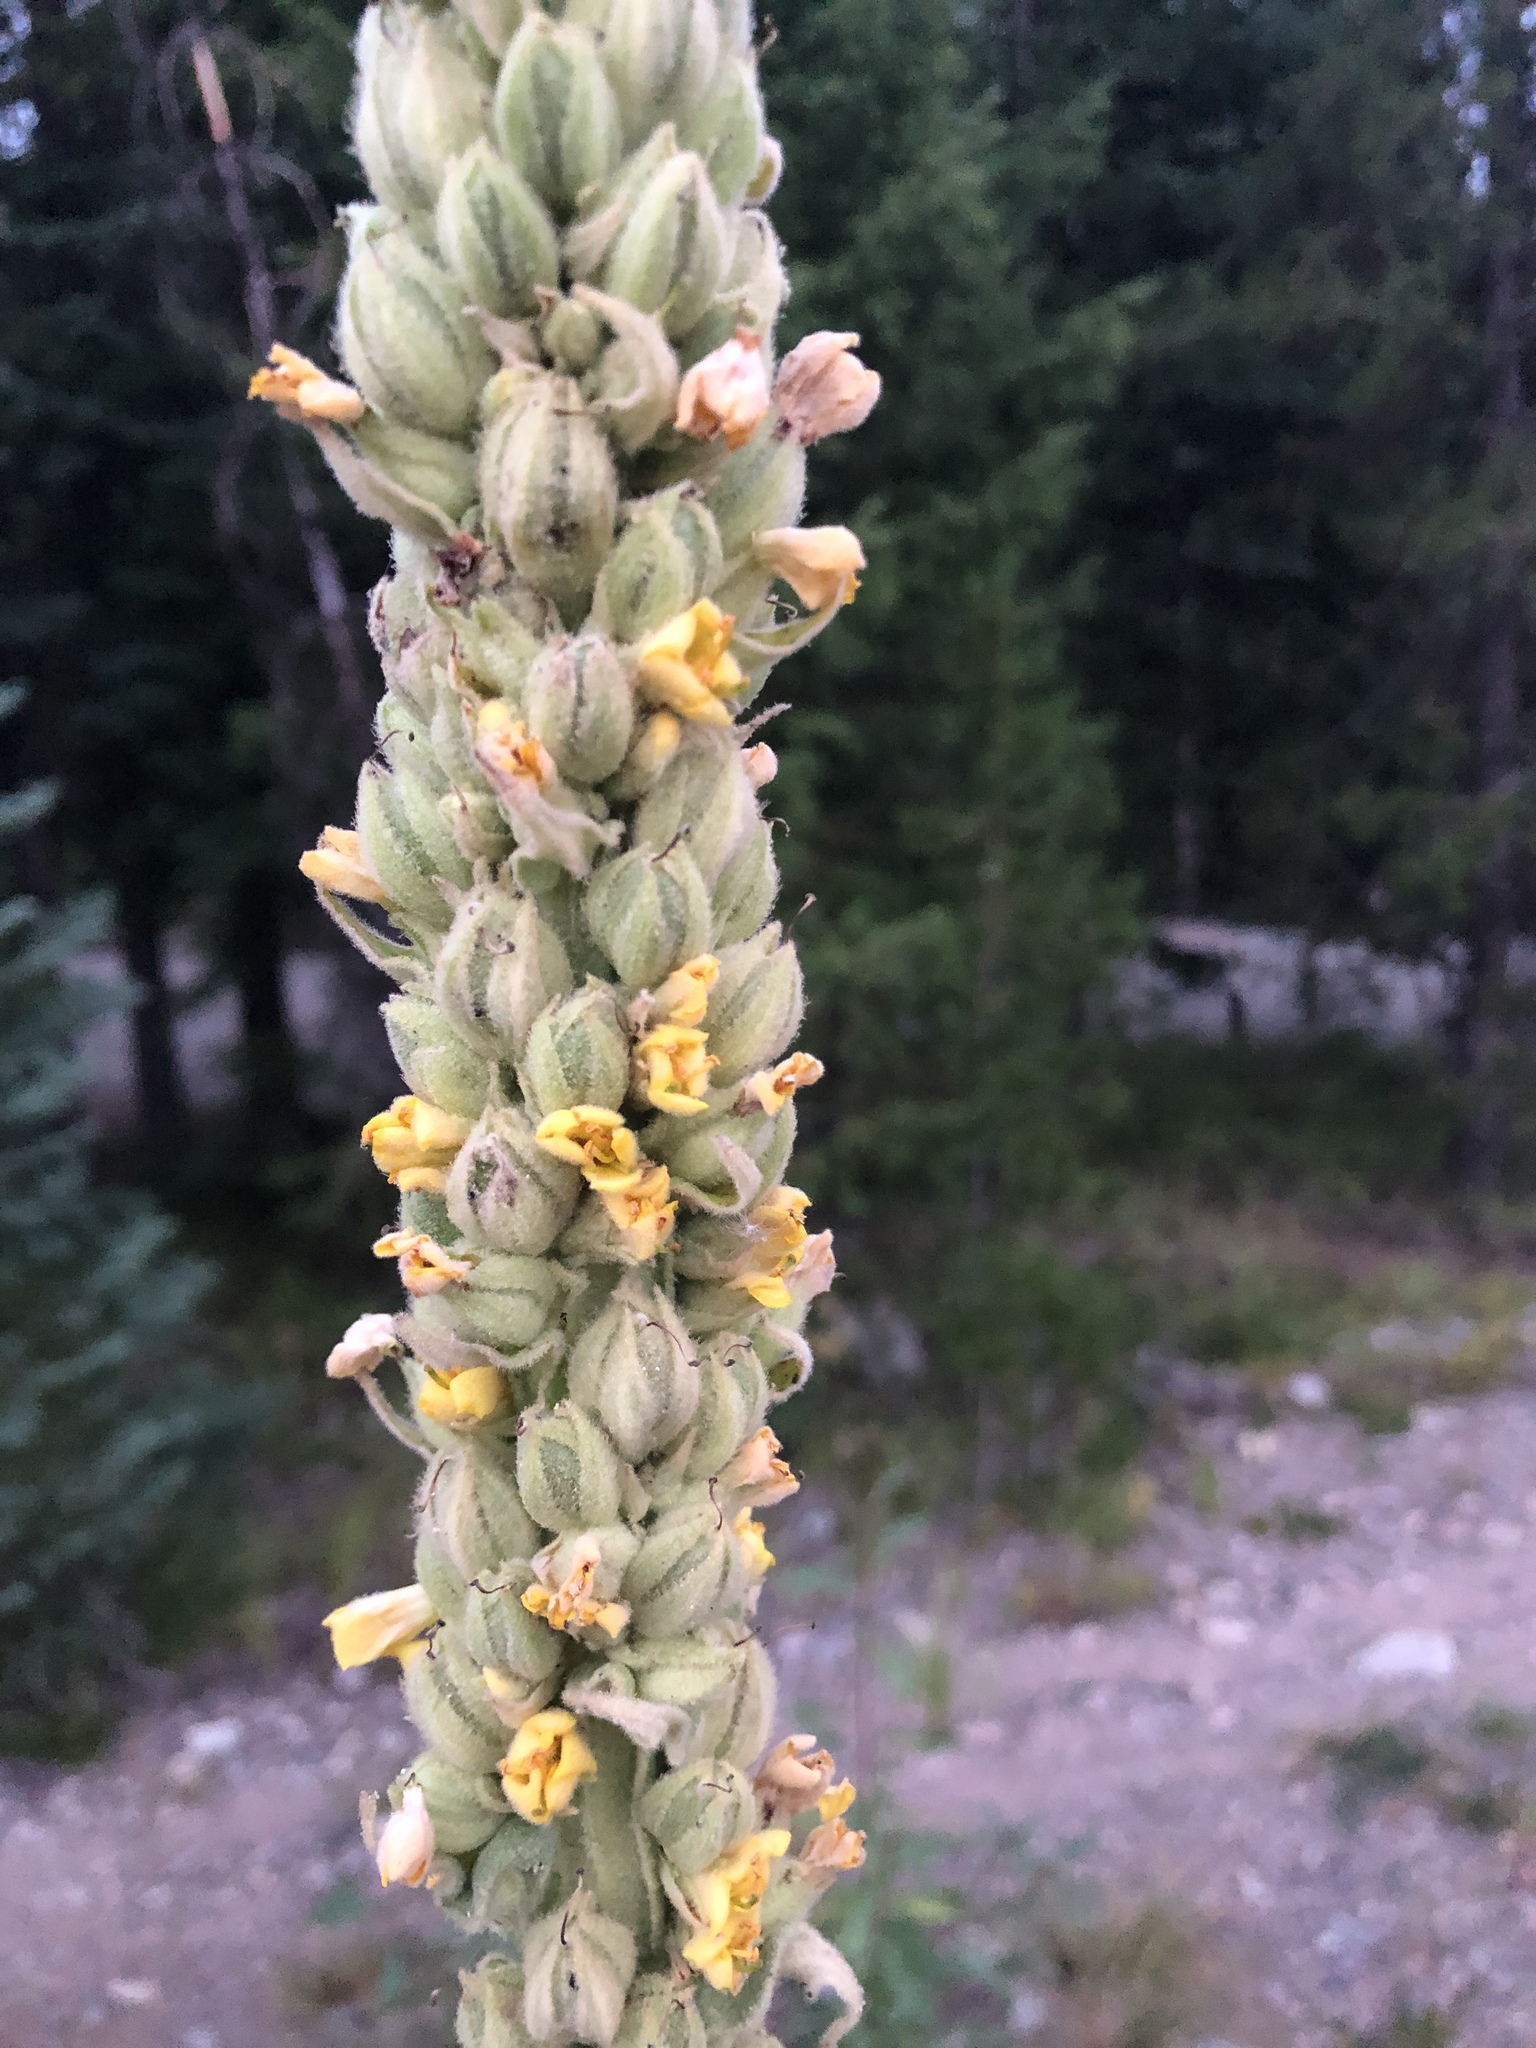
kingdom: Plantae
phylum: Tracheophyta
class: Magnoliopsida
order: Lamiales
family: Scrophulariaceae
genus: Verbascum
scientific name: Verbascum thapsus
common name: Common mullein
